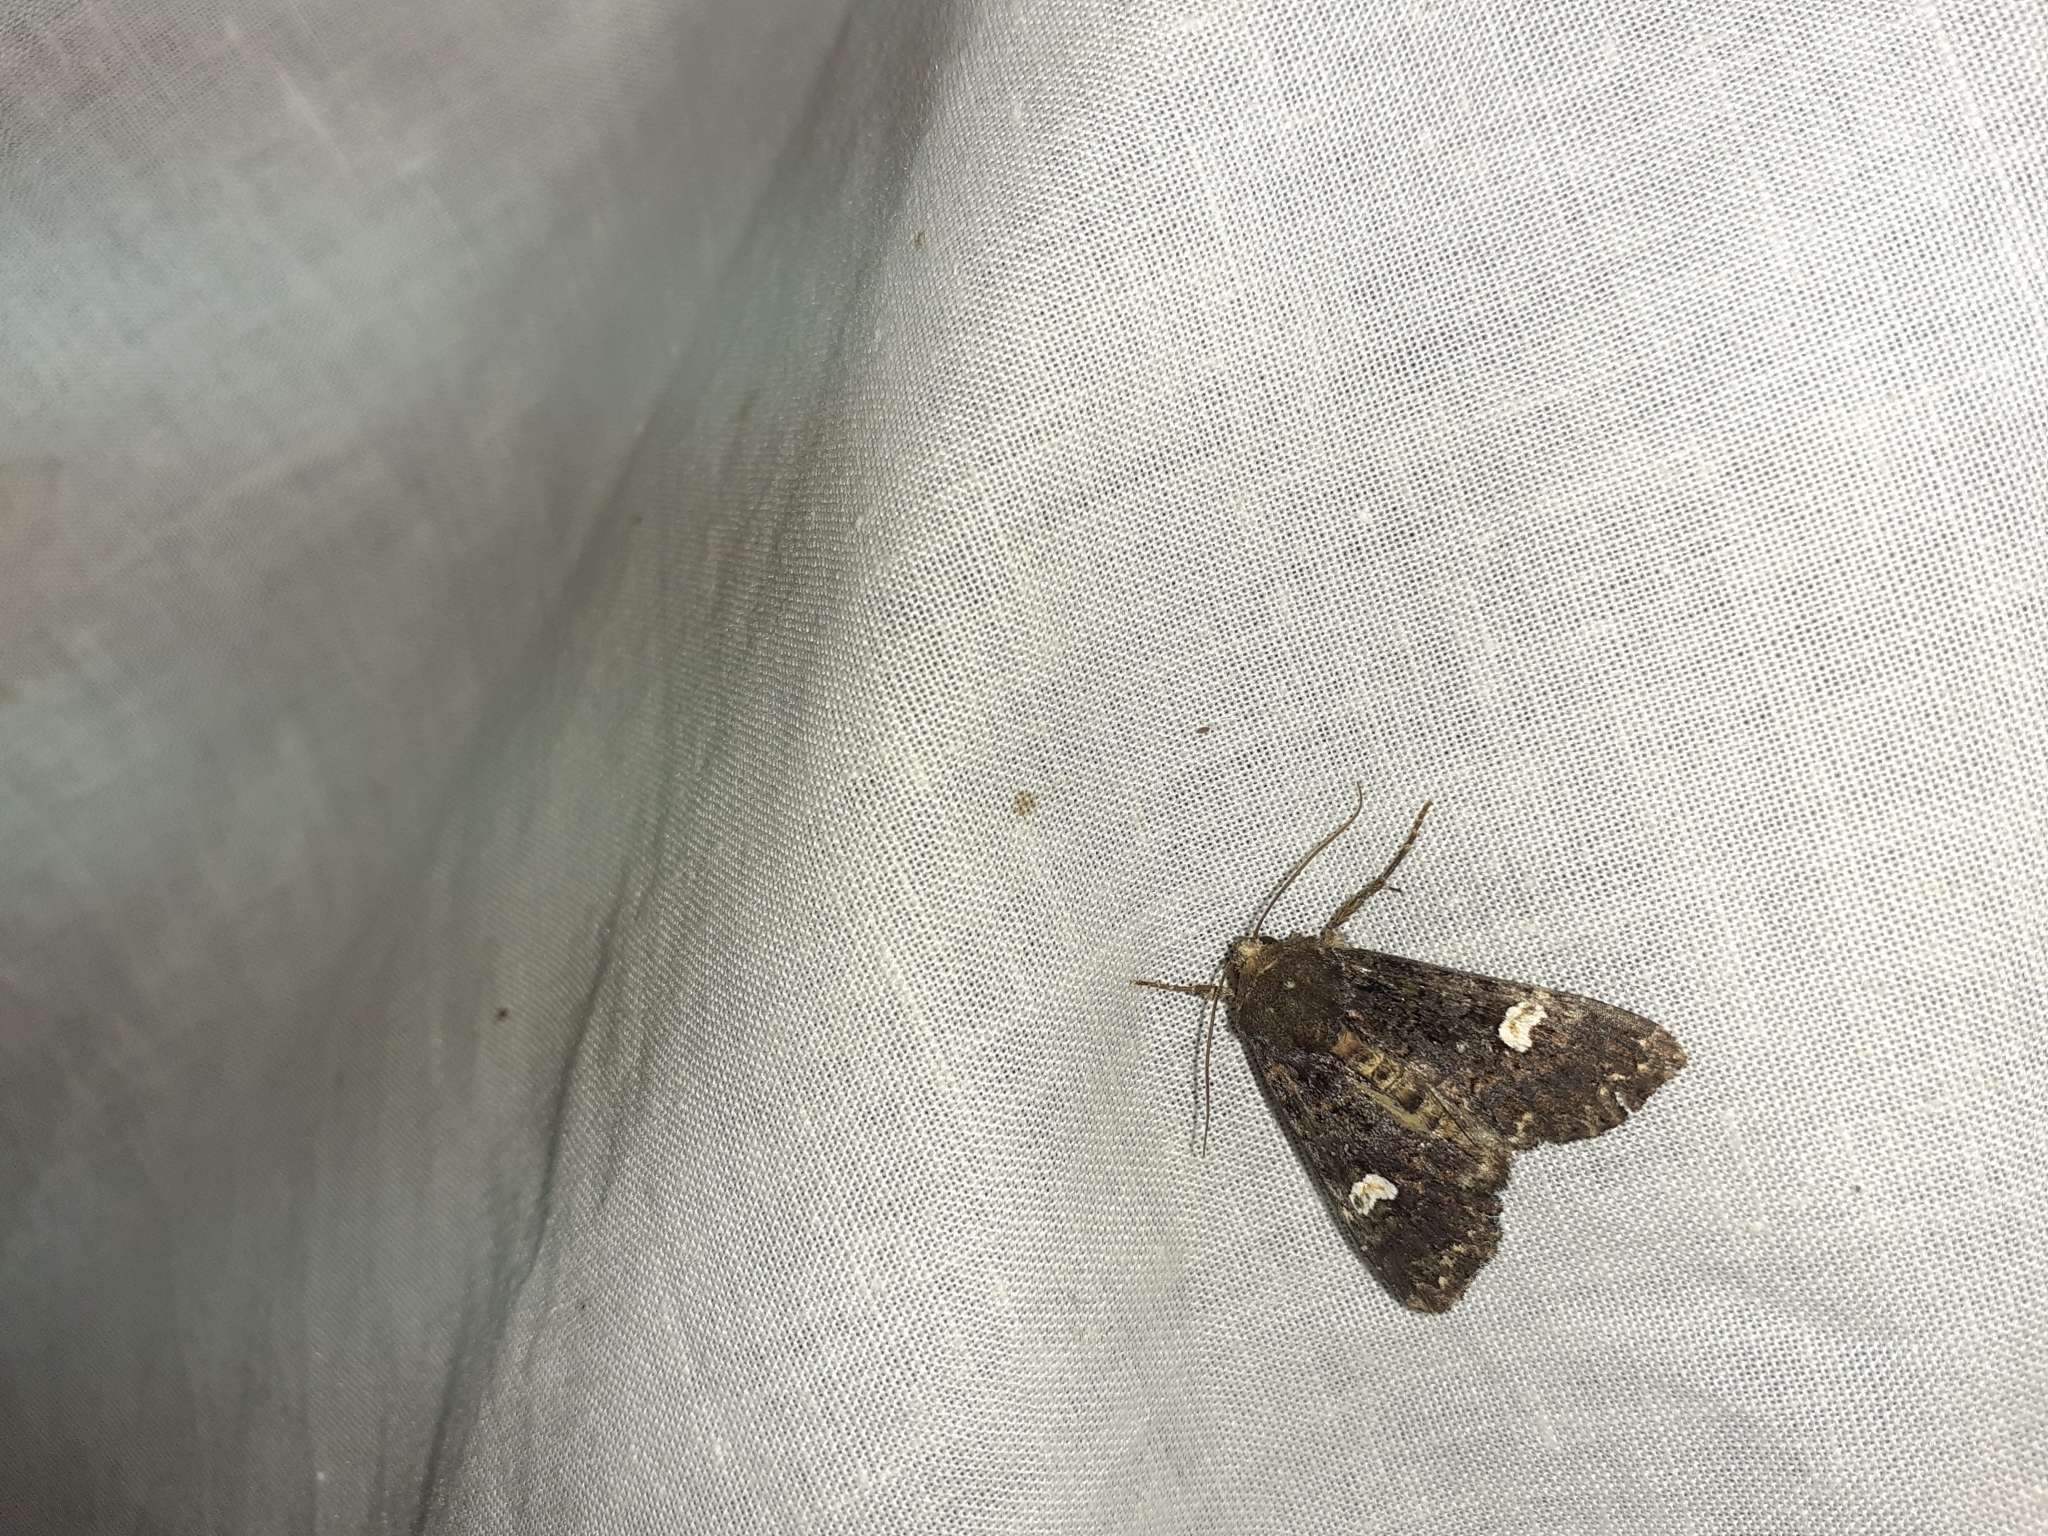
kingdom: Animalia
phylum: Arthropoda
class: Insecta
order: Lepidoptera
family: Noctuidae
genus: Melanchra
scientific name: Melanchra persicariae
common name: Dot moth
